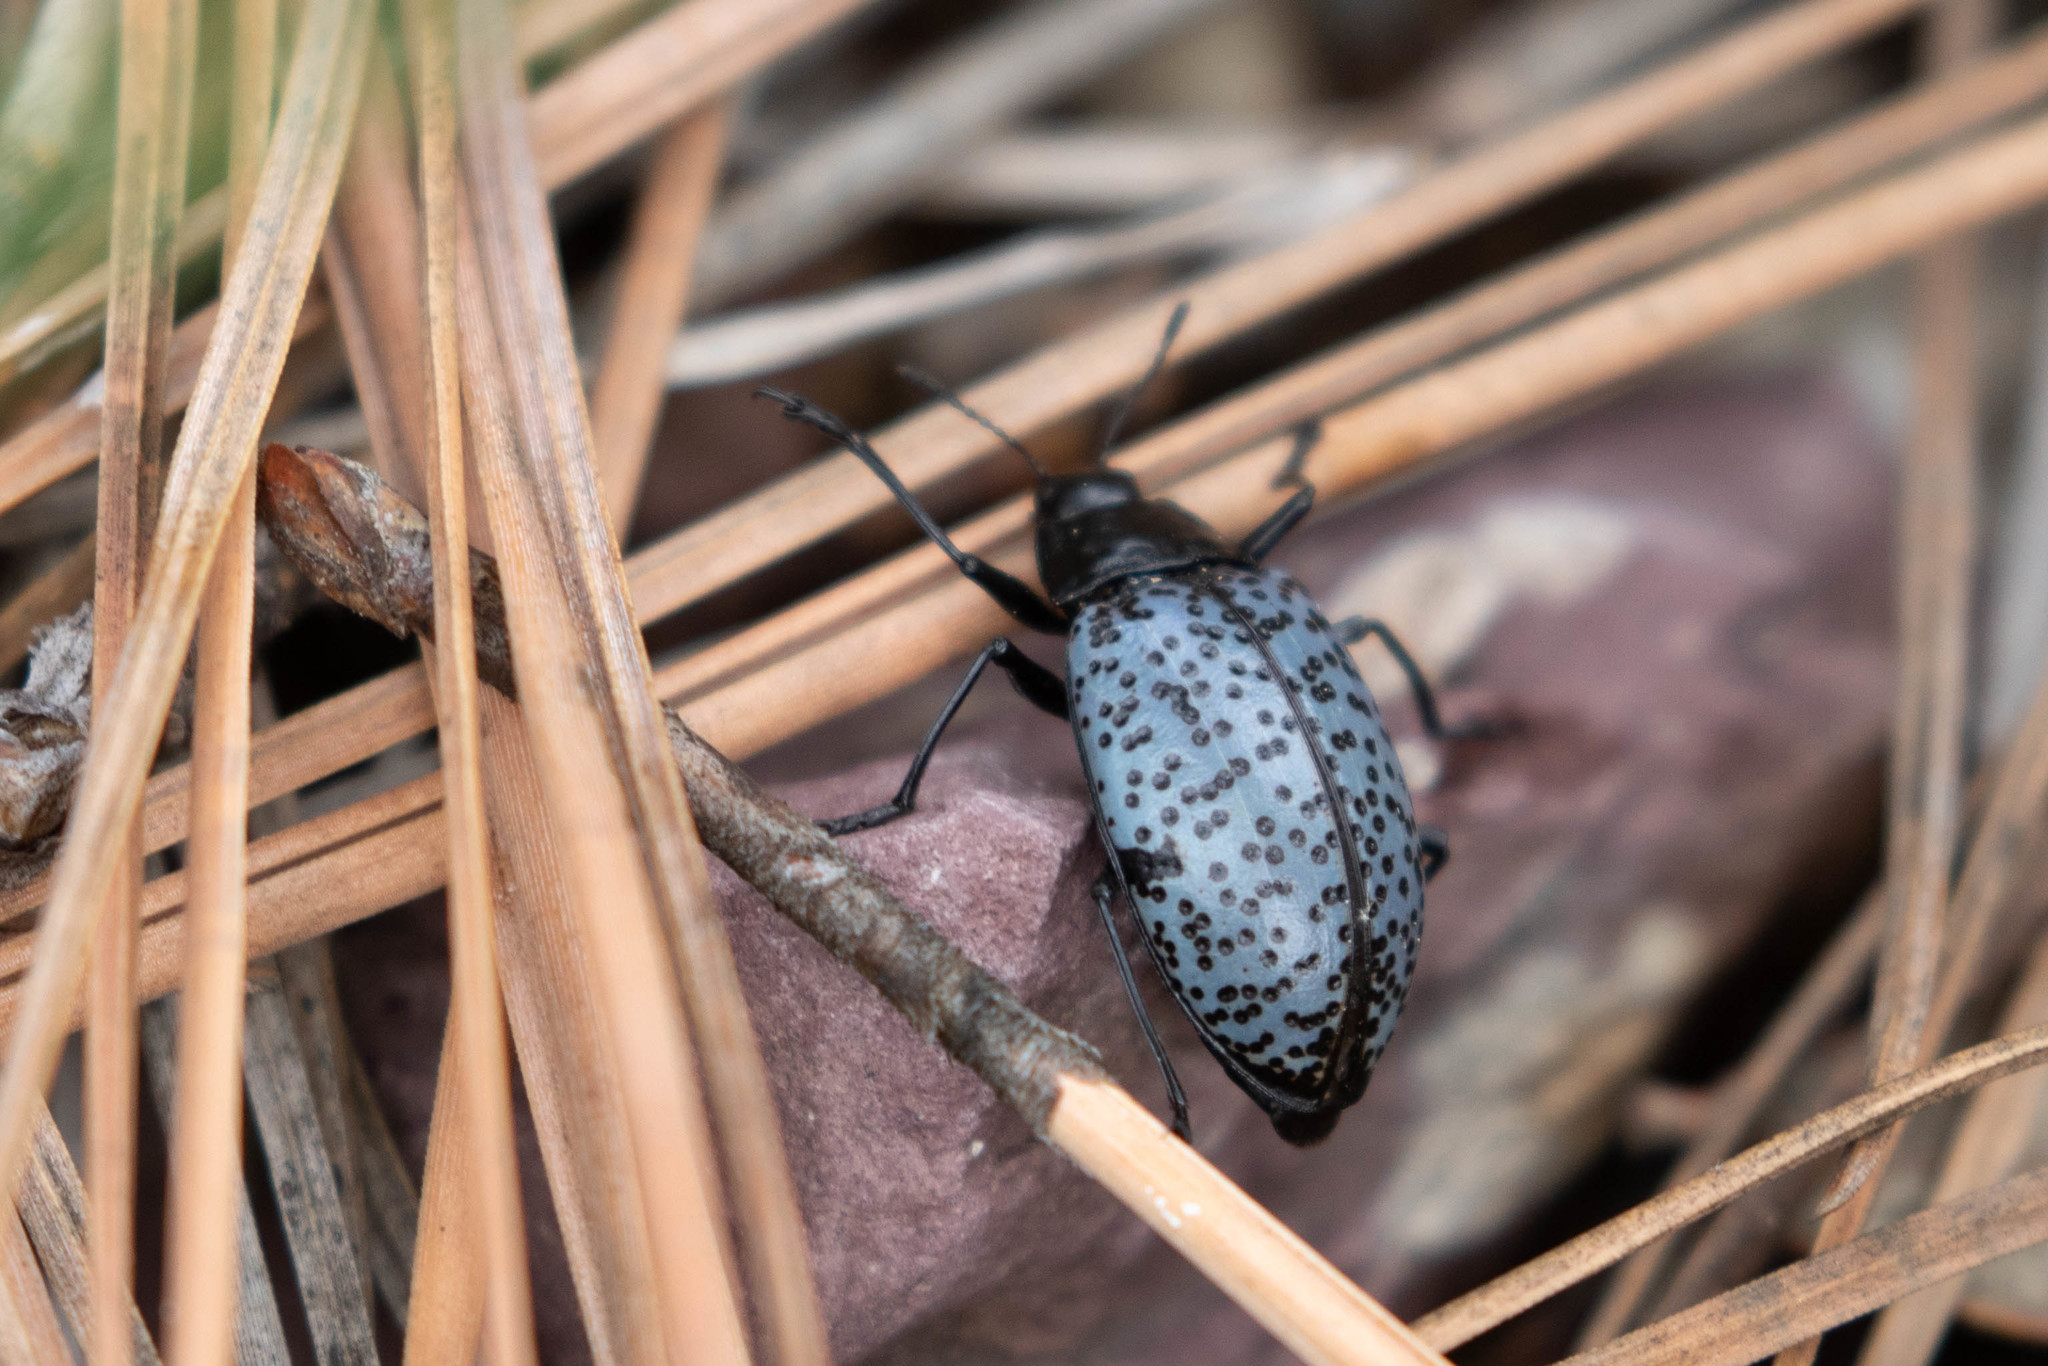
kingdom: Animalia
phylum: Arthropoda
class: Insecta
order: Coleoptera
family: Erotylidae
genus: Gibbifer
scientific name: Gibbifer californicus
